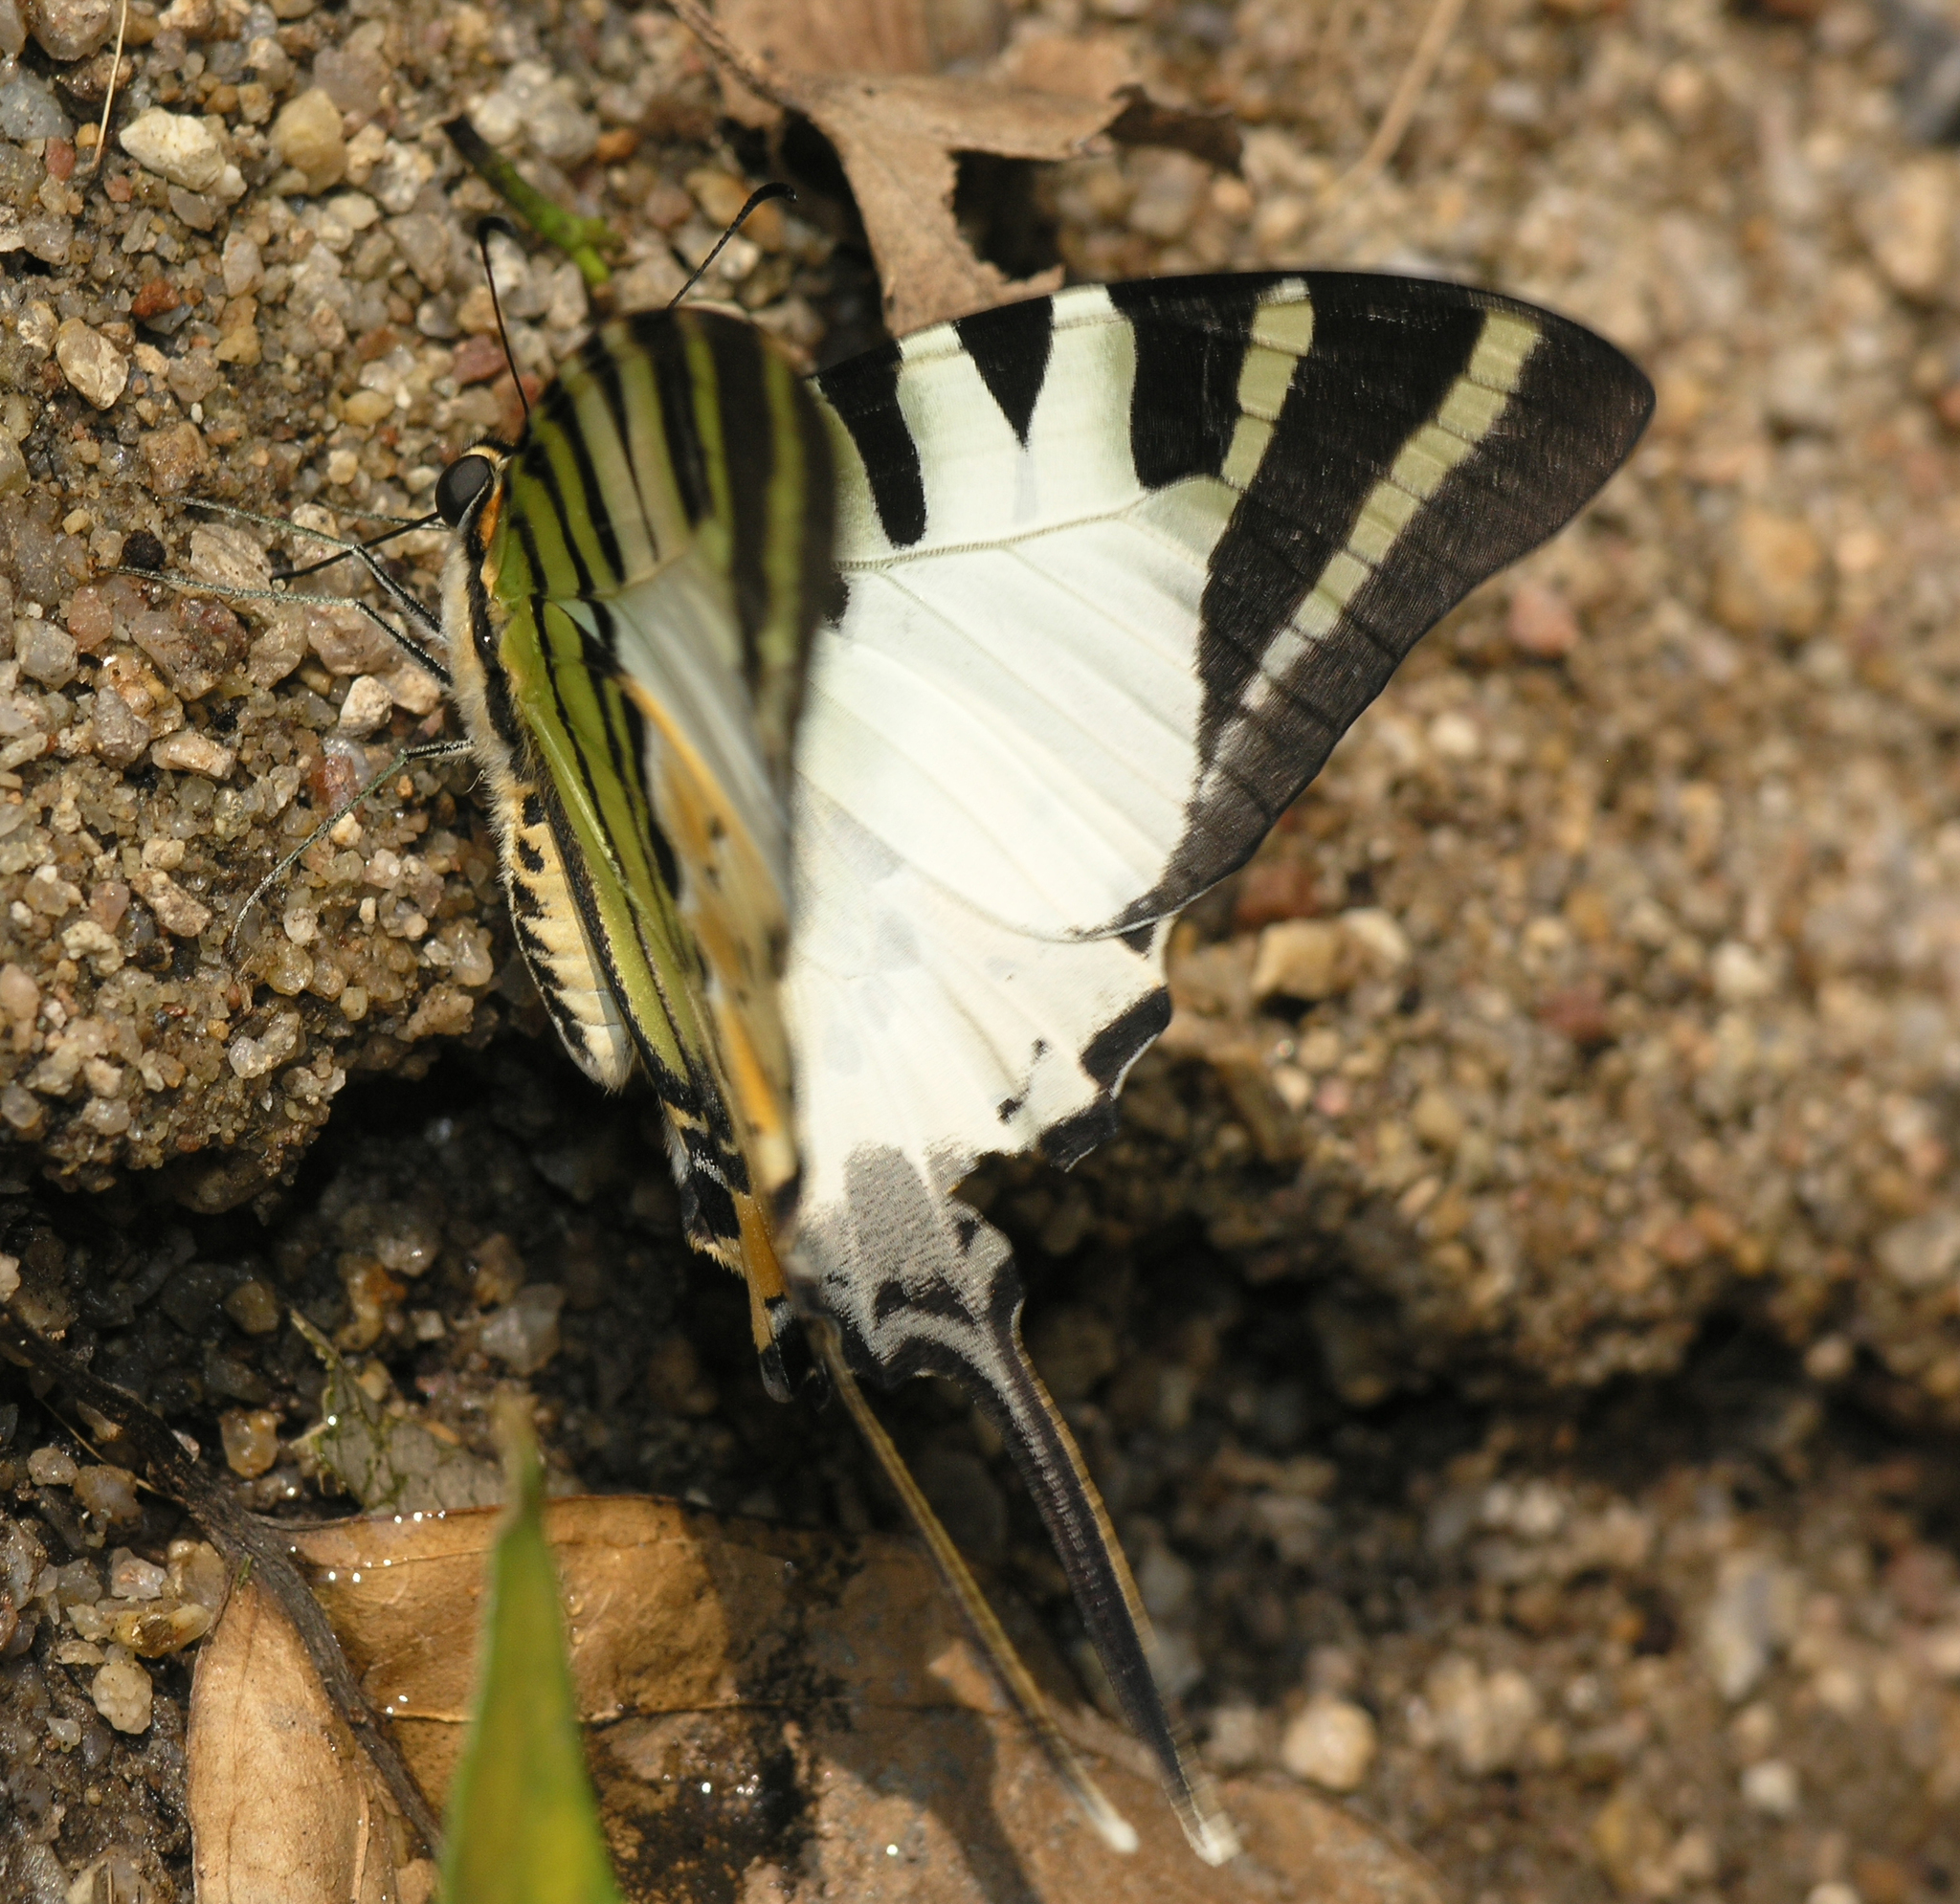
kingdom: Animalia
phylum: Arthropoda
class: Insecta
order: Lepidoptera
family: Papilionidae
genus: Graphium
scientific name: Graphium antiphates
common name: Fivebar swordtail
